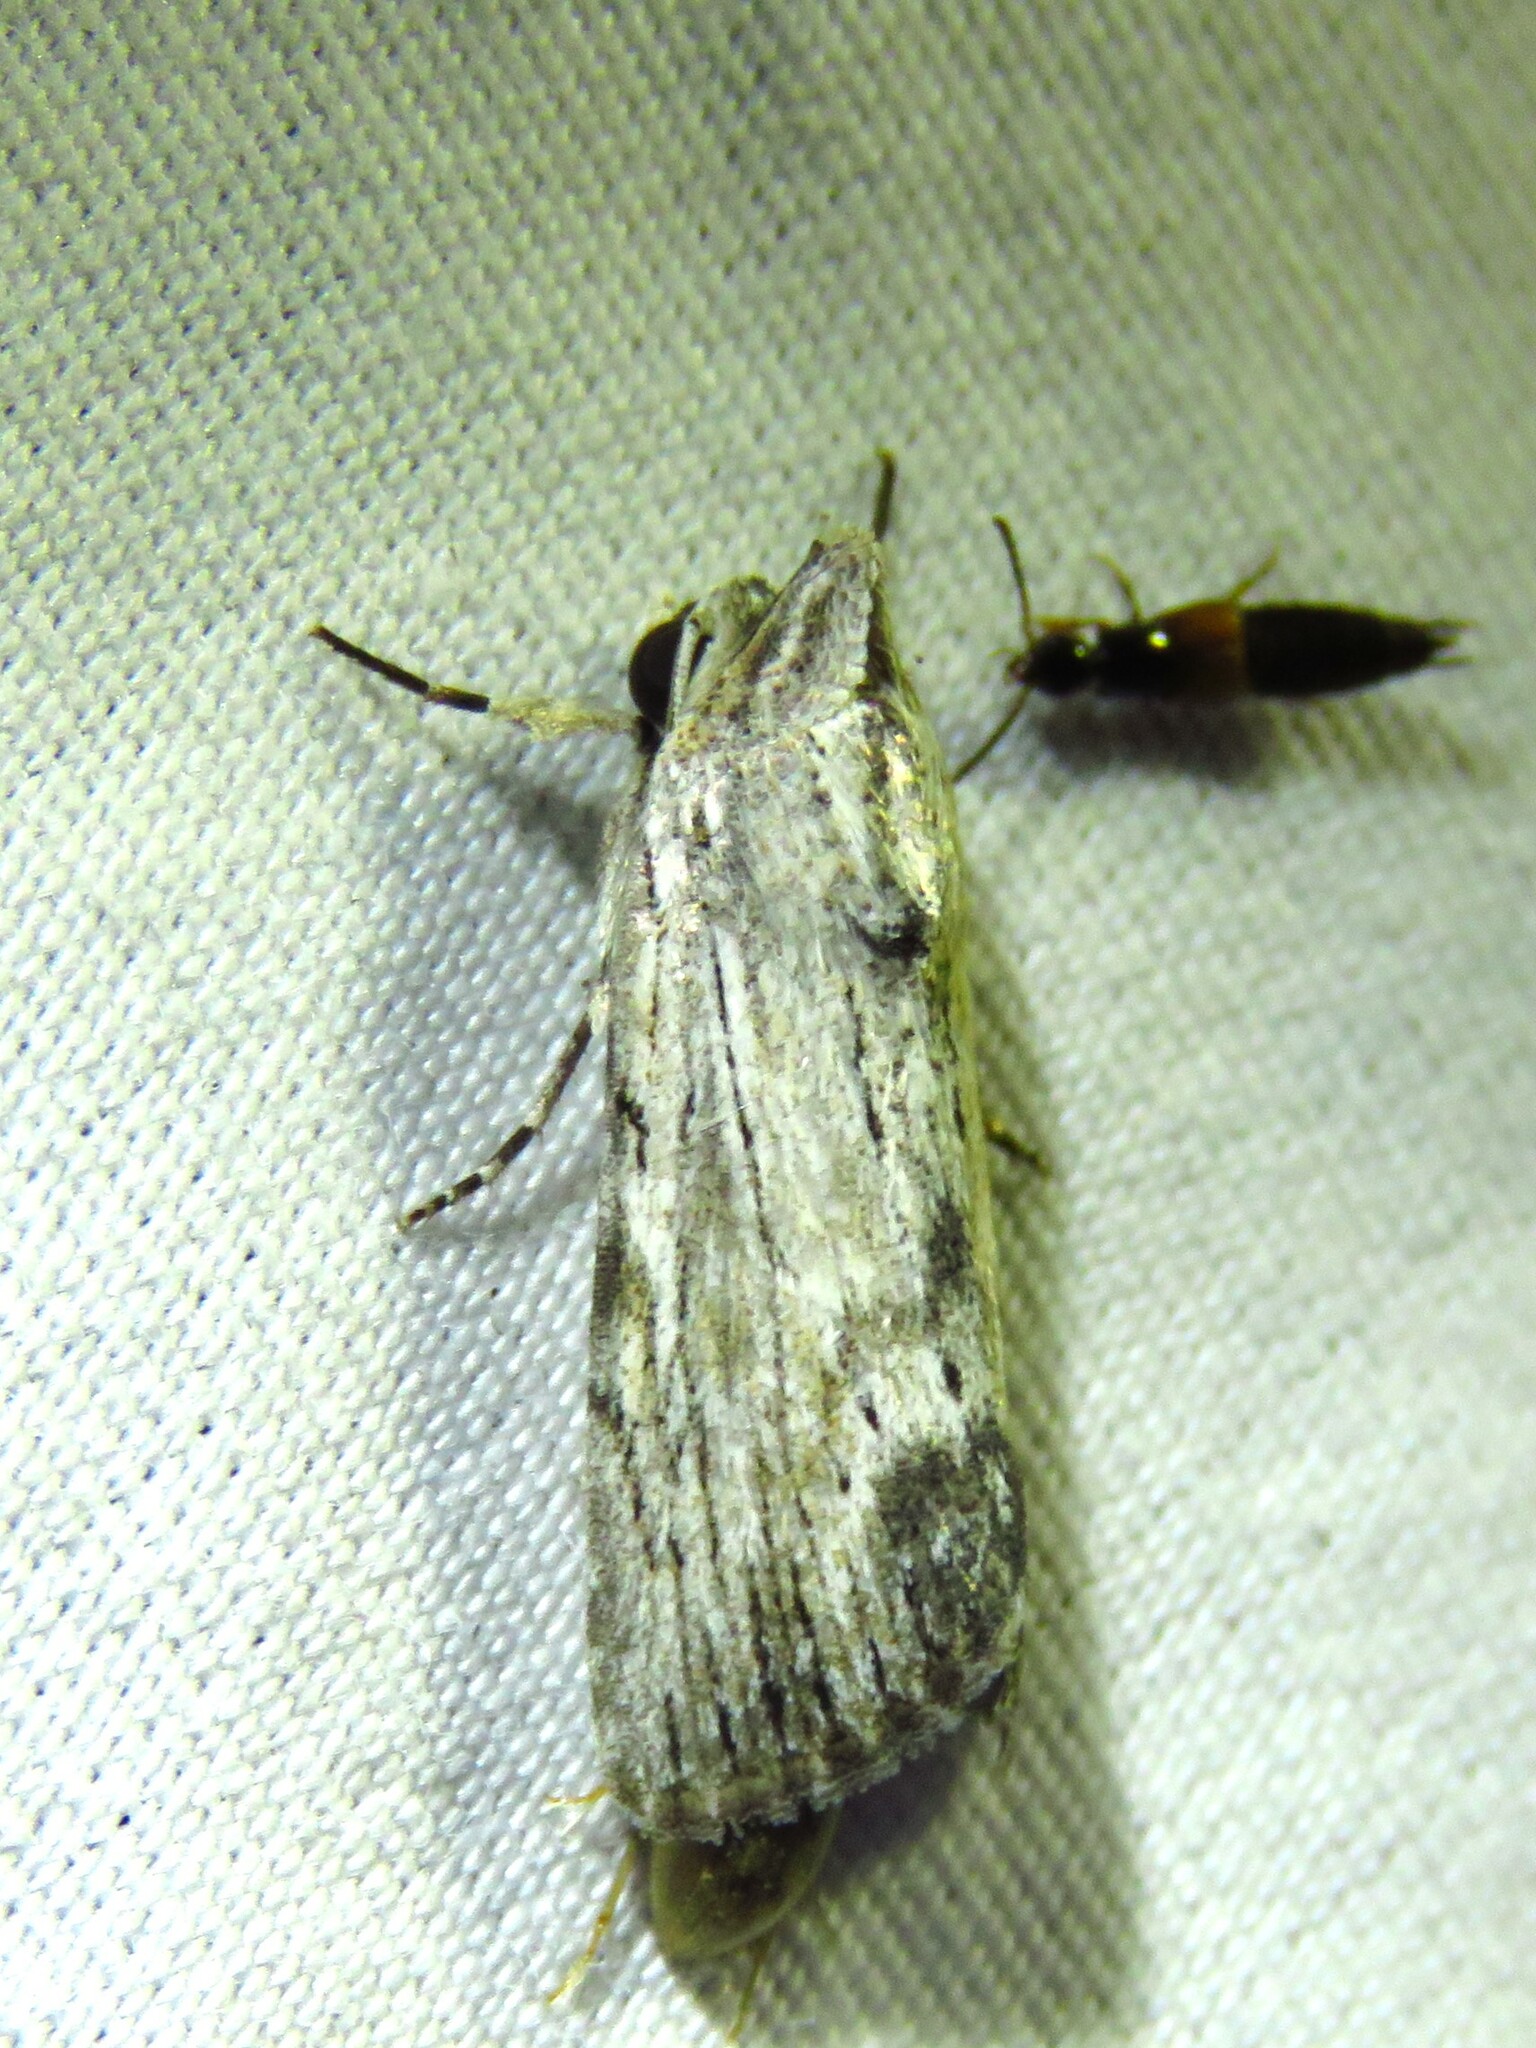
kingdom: Animalia
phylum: Arthropoda
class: Insecta
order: Lepidoptera
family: Noctuidae
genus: Catabenoides
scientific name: Catabenoides terminellus
